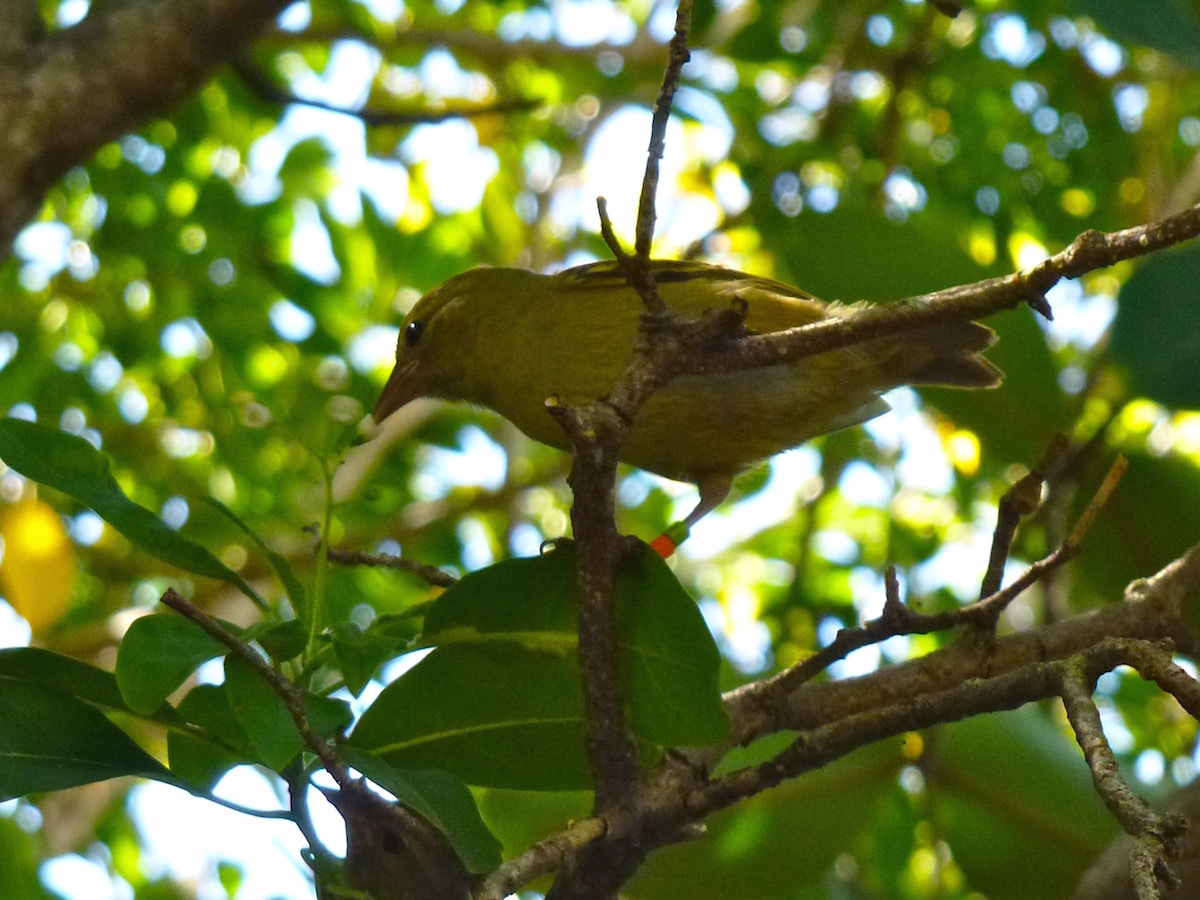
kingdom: Animalia
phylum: Chordata
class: Aves
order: Passeriformes
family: Ploceidae
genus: Foudia
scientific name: Foudia rubra
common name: Mauritius fody
